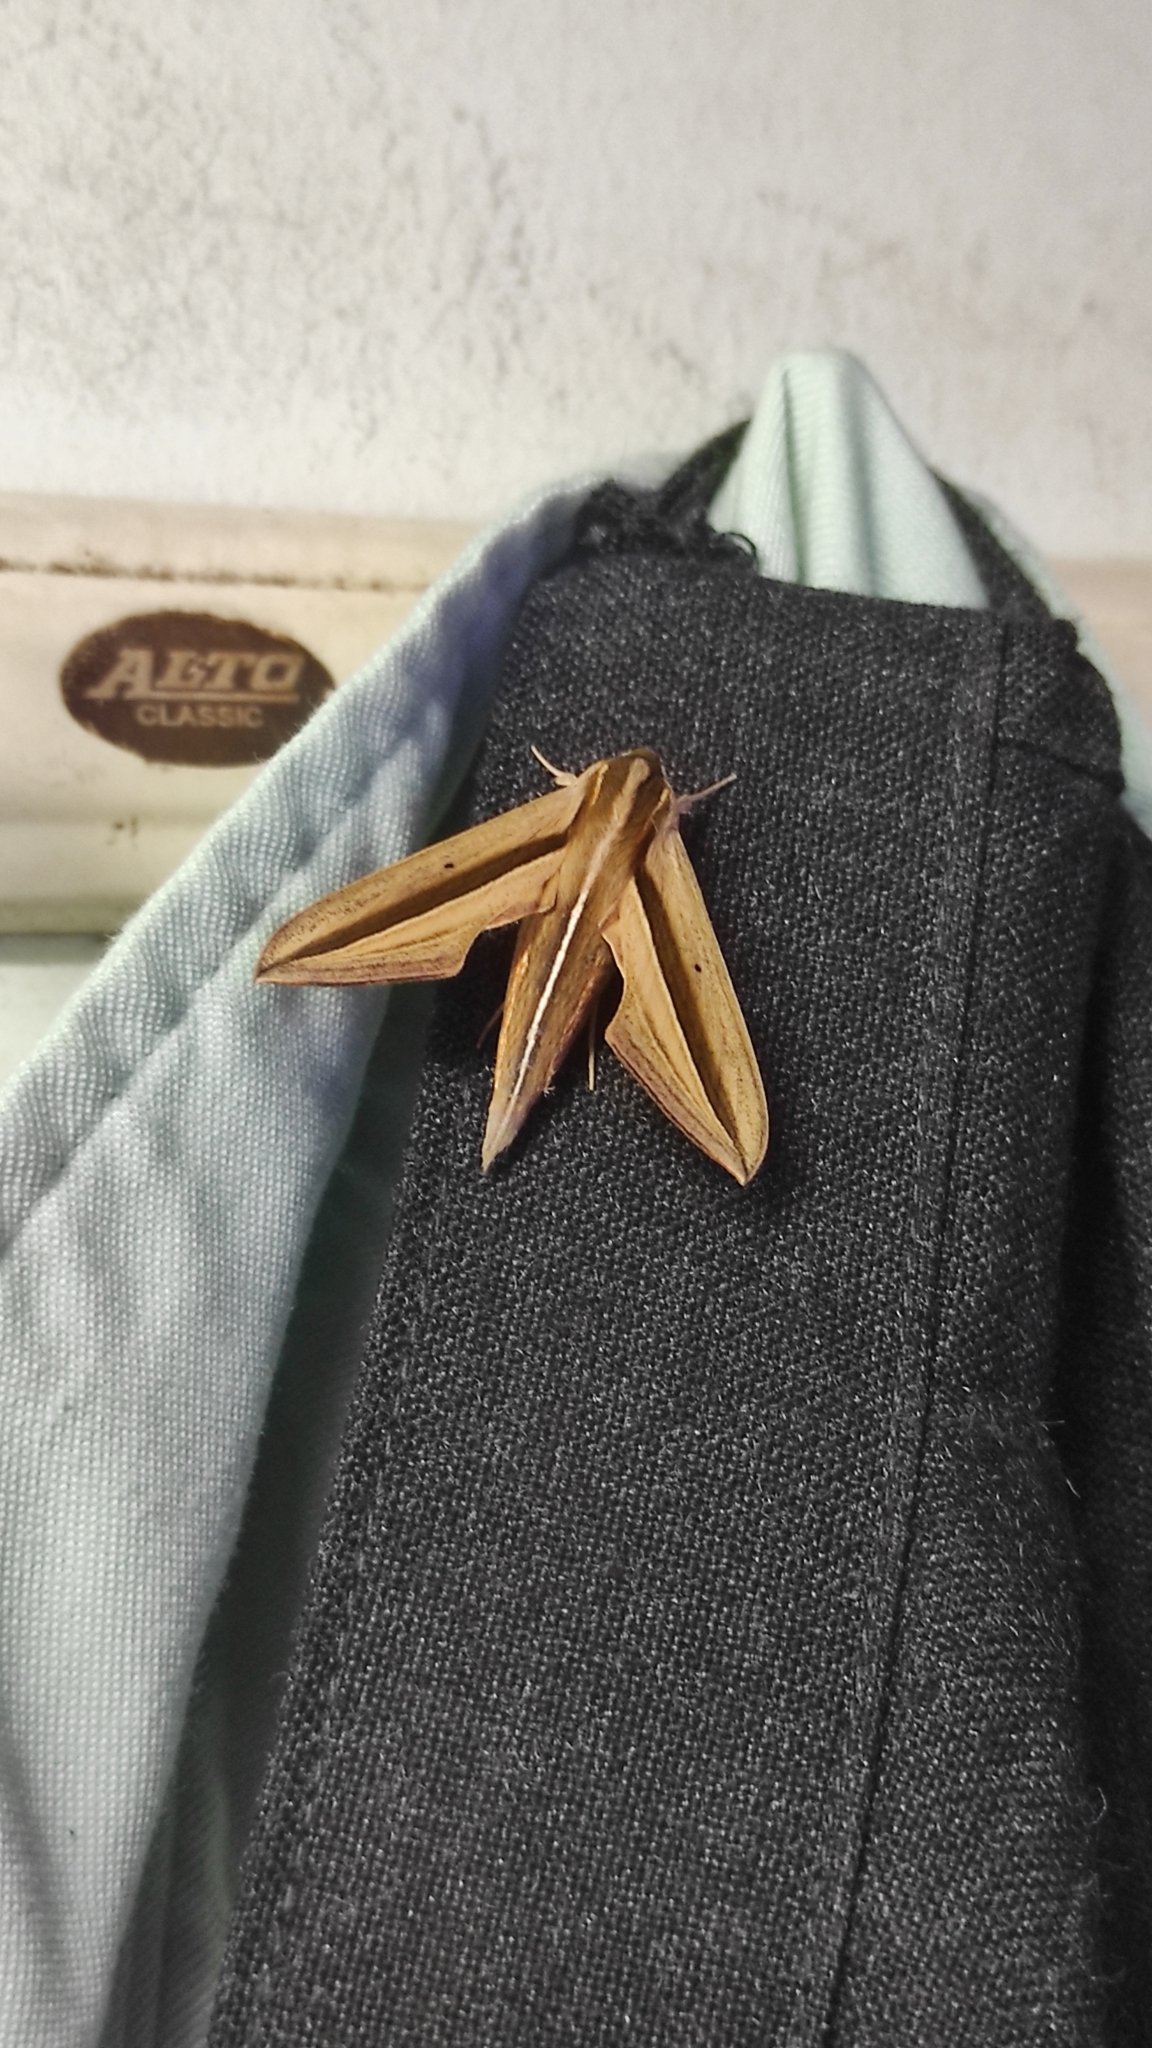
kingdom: Animalia
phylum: Arthropoda
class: Insecta
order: Lepidoptera
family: Sphingidae
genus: Theretra
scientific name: Theretra silhetensis
